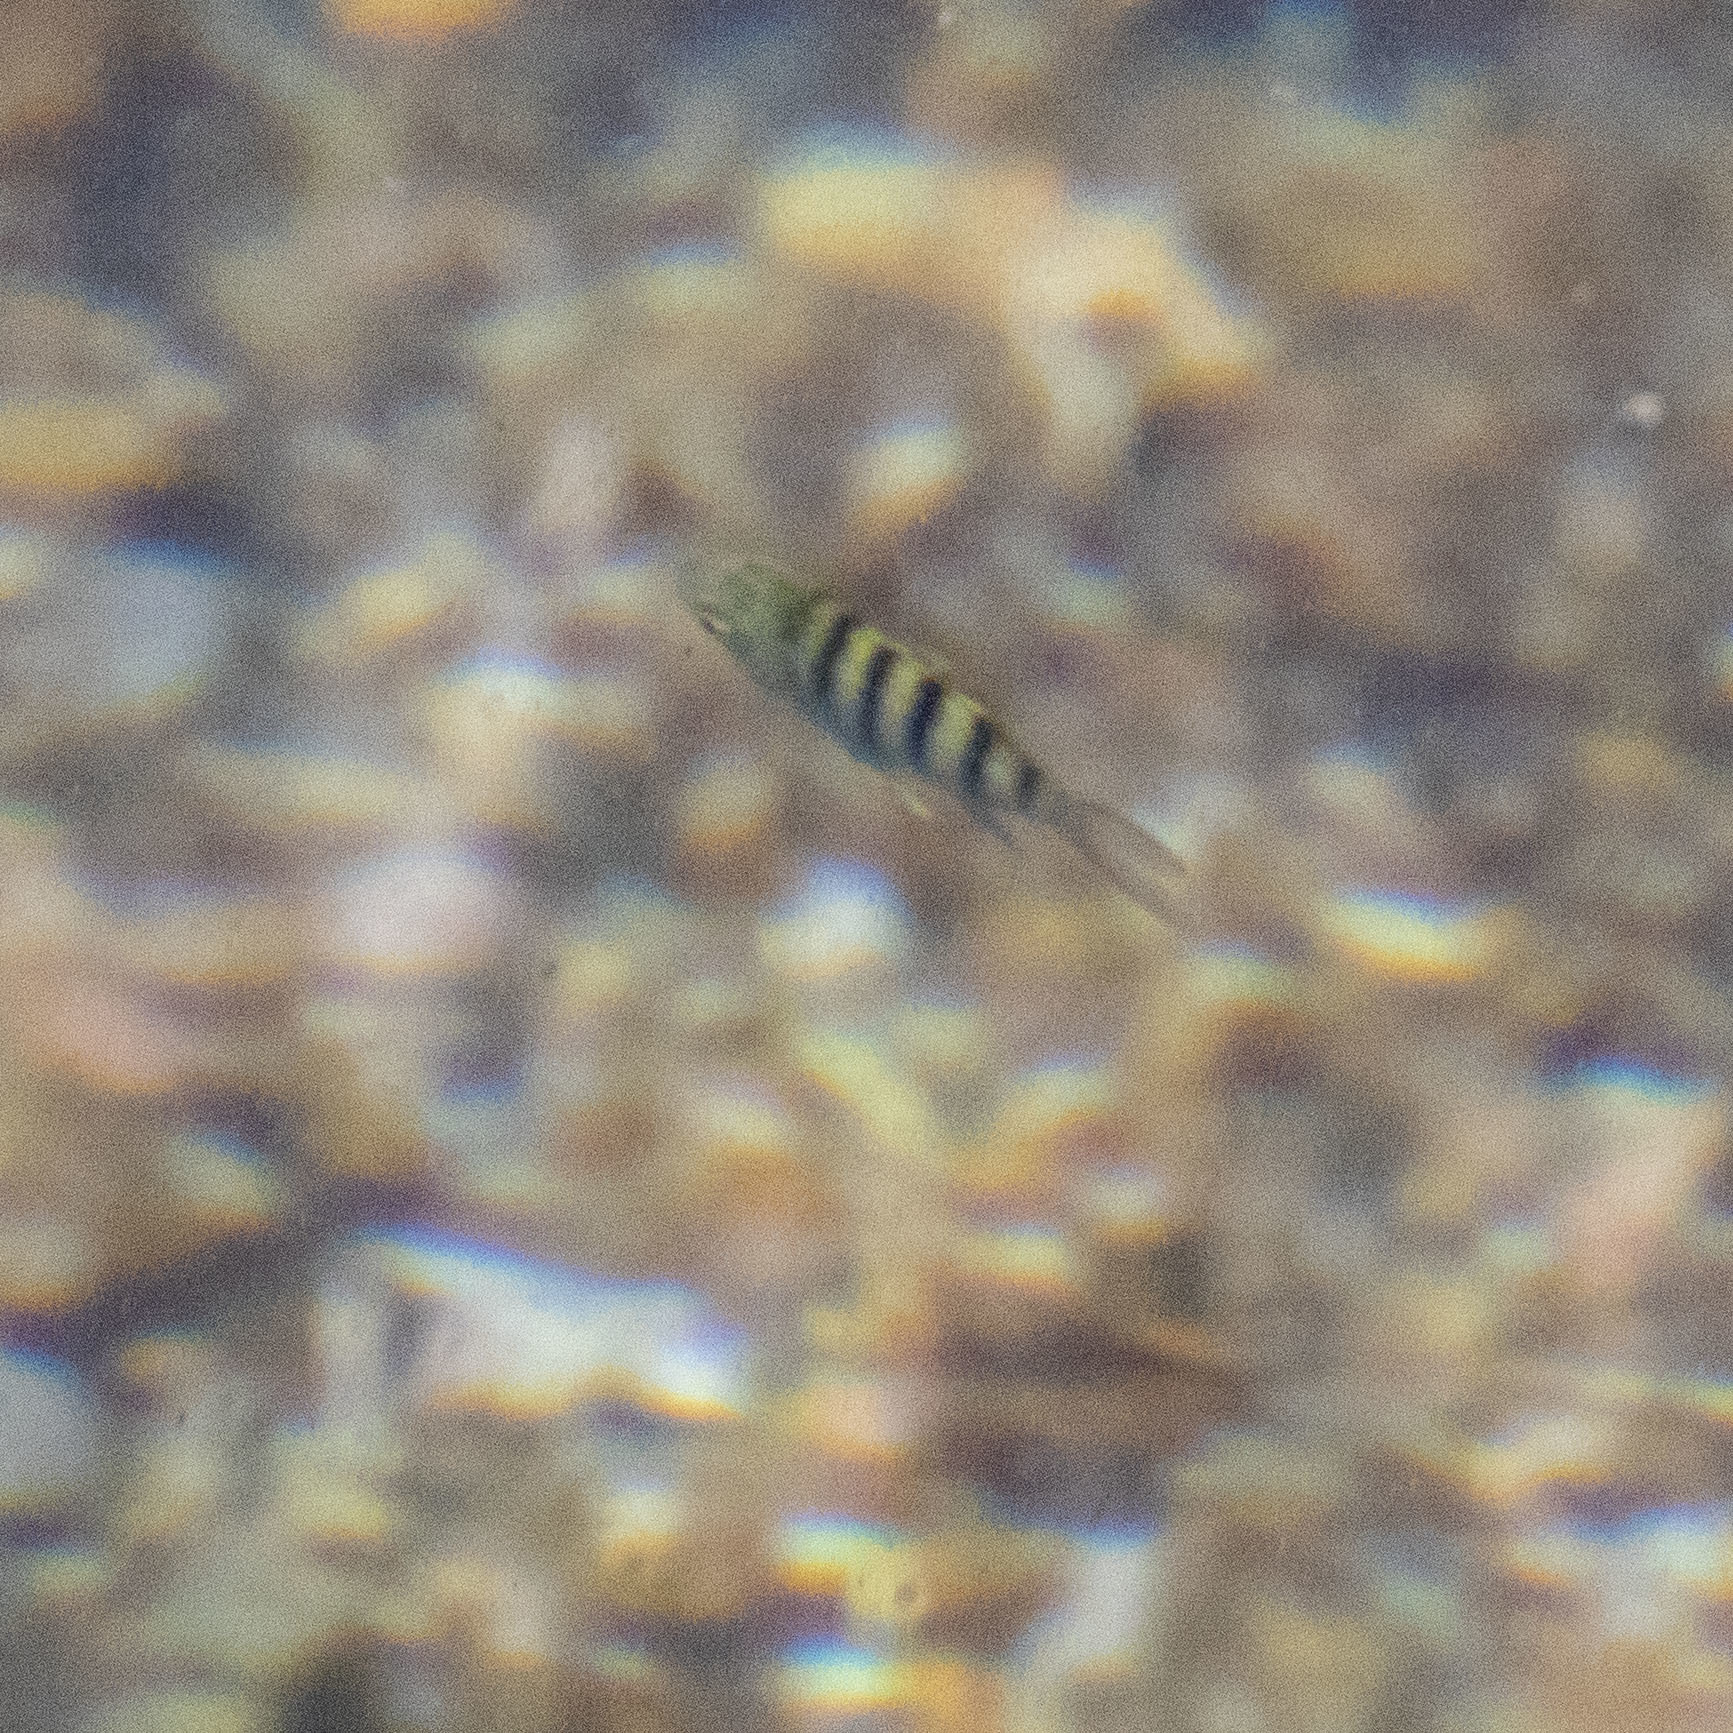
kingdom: Animalia
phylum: Chordata
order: Perciformes
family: Pomacentridae
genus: Abudefduf
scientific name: Abudefduf bengalensis
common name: Bengal sergeant
